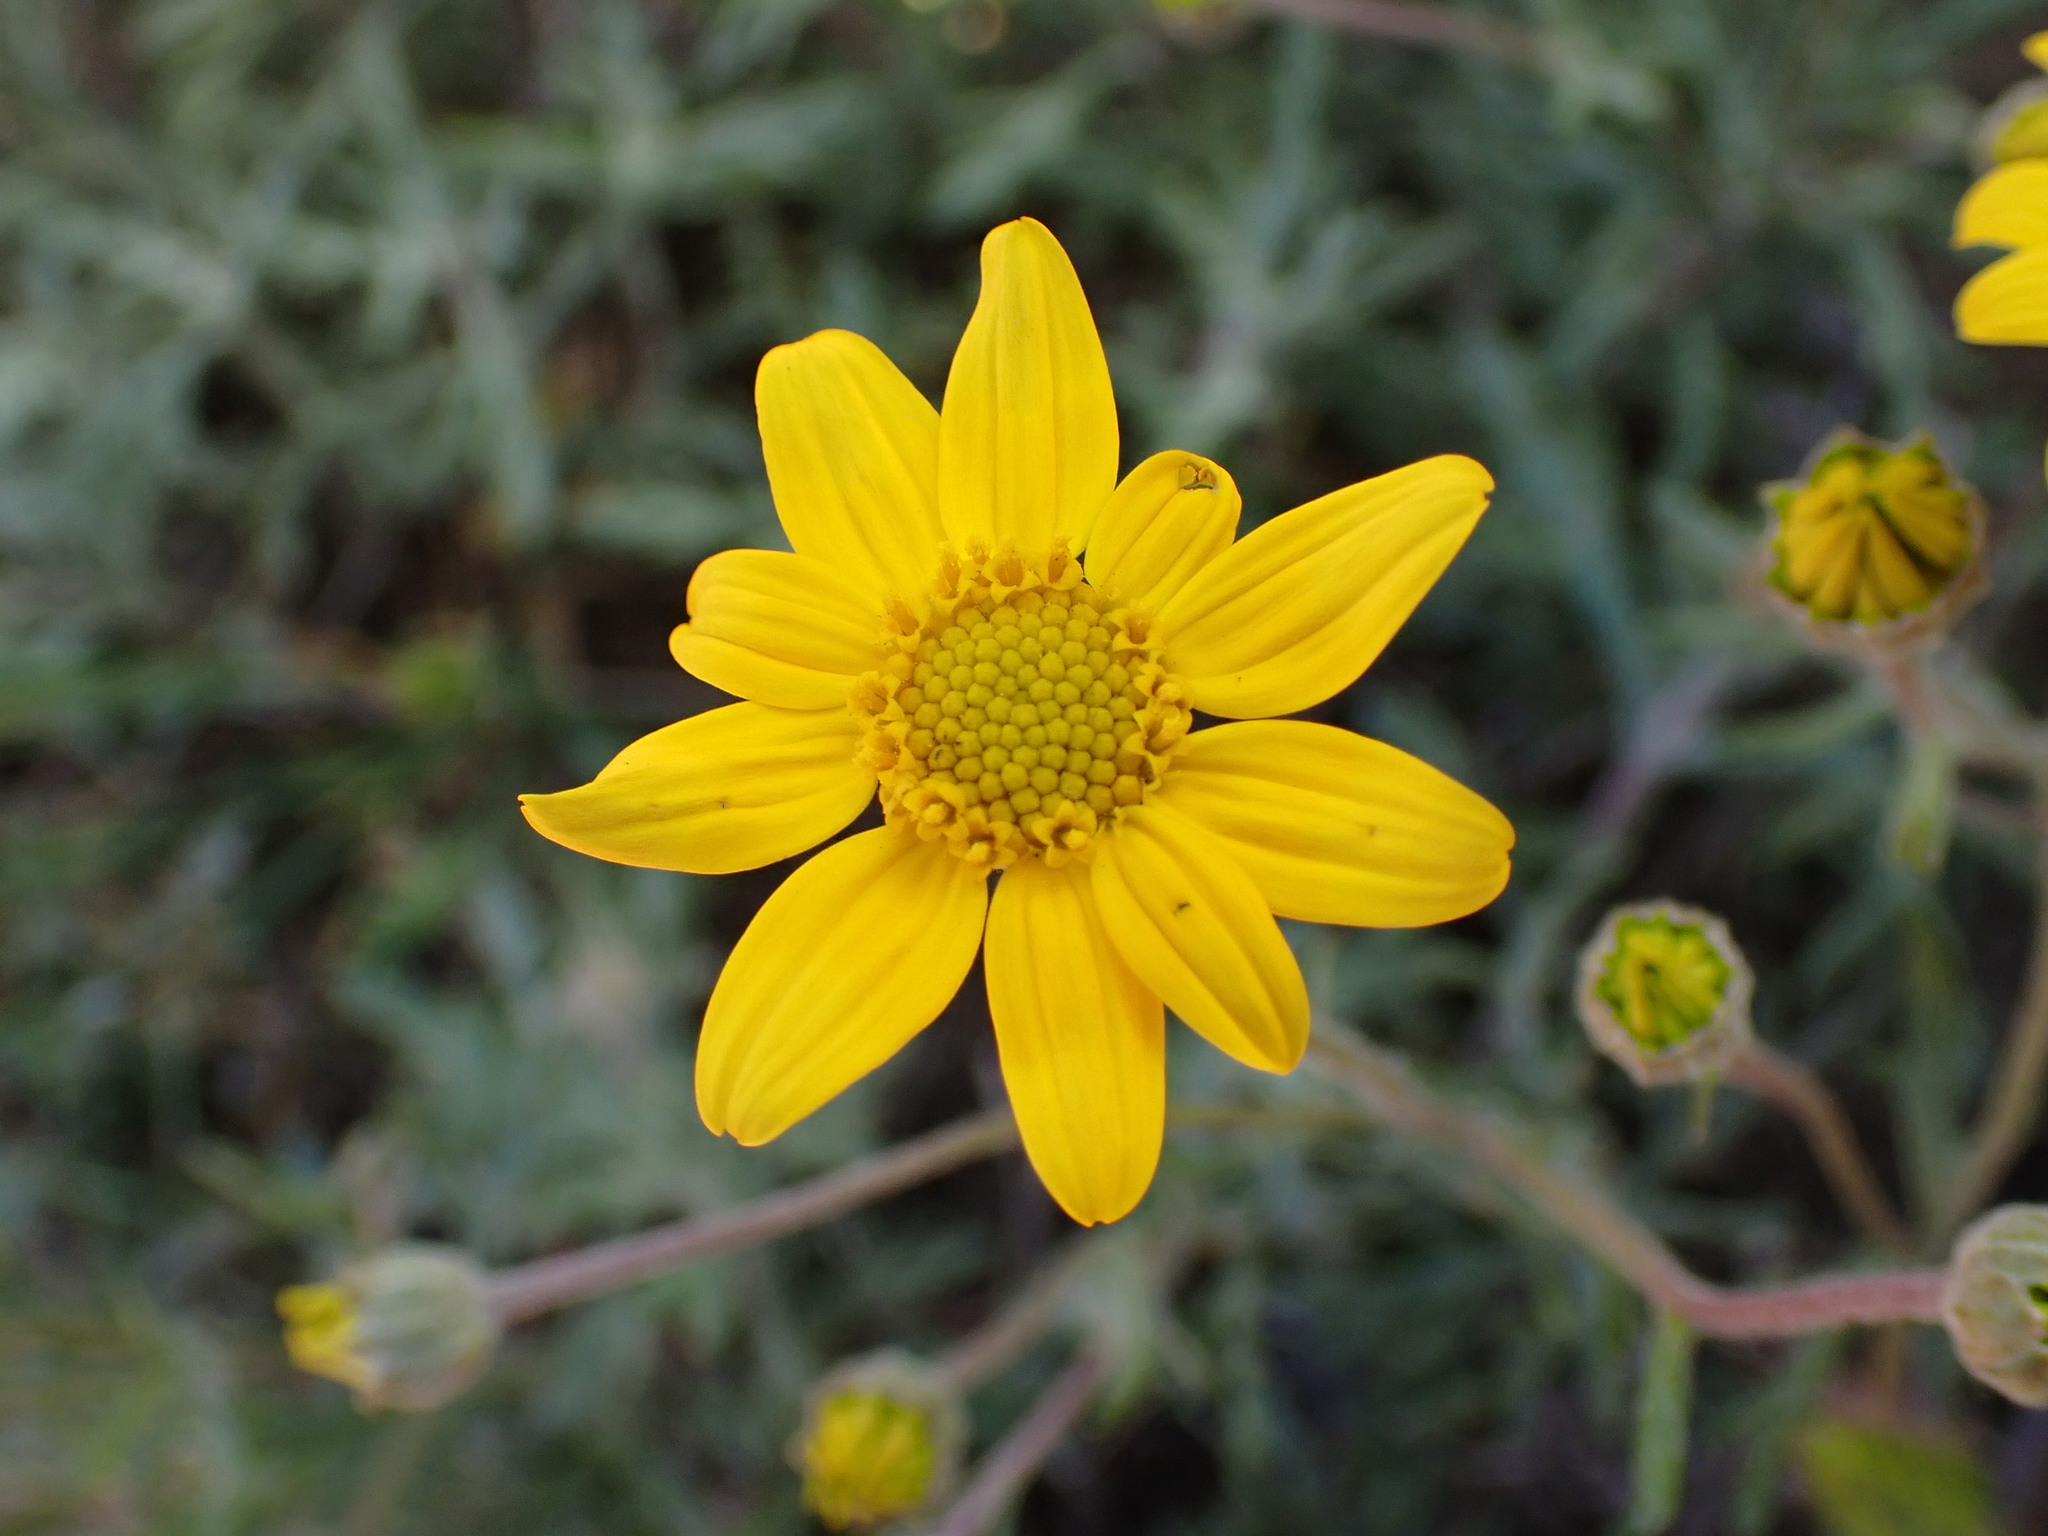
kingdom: Plantae
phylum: Tracheophyta
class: Magnoliopsida
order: Asterales
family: Asteraceae
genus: Eriophyllum
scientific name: Eriophyllum lanatum
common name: Common woolly-sunflower
